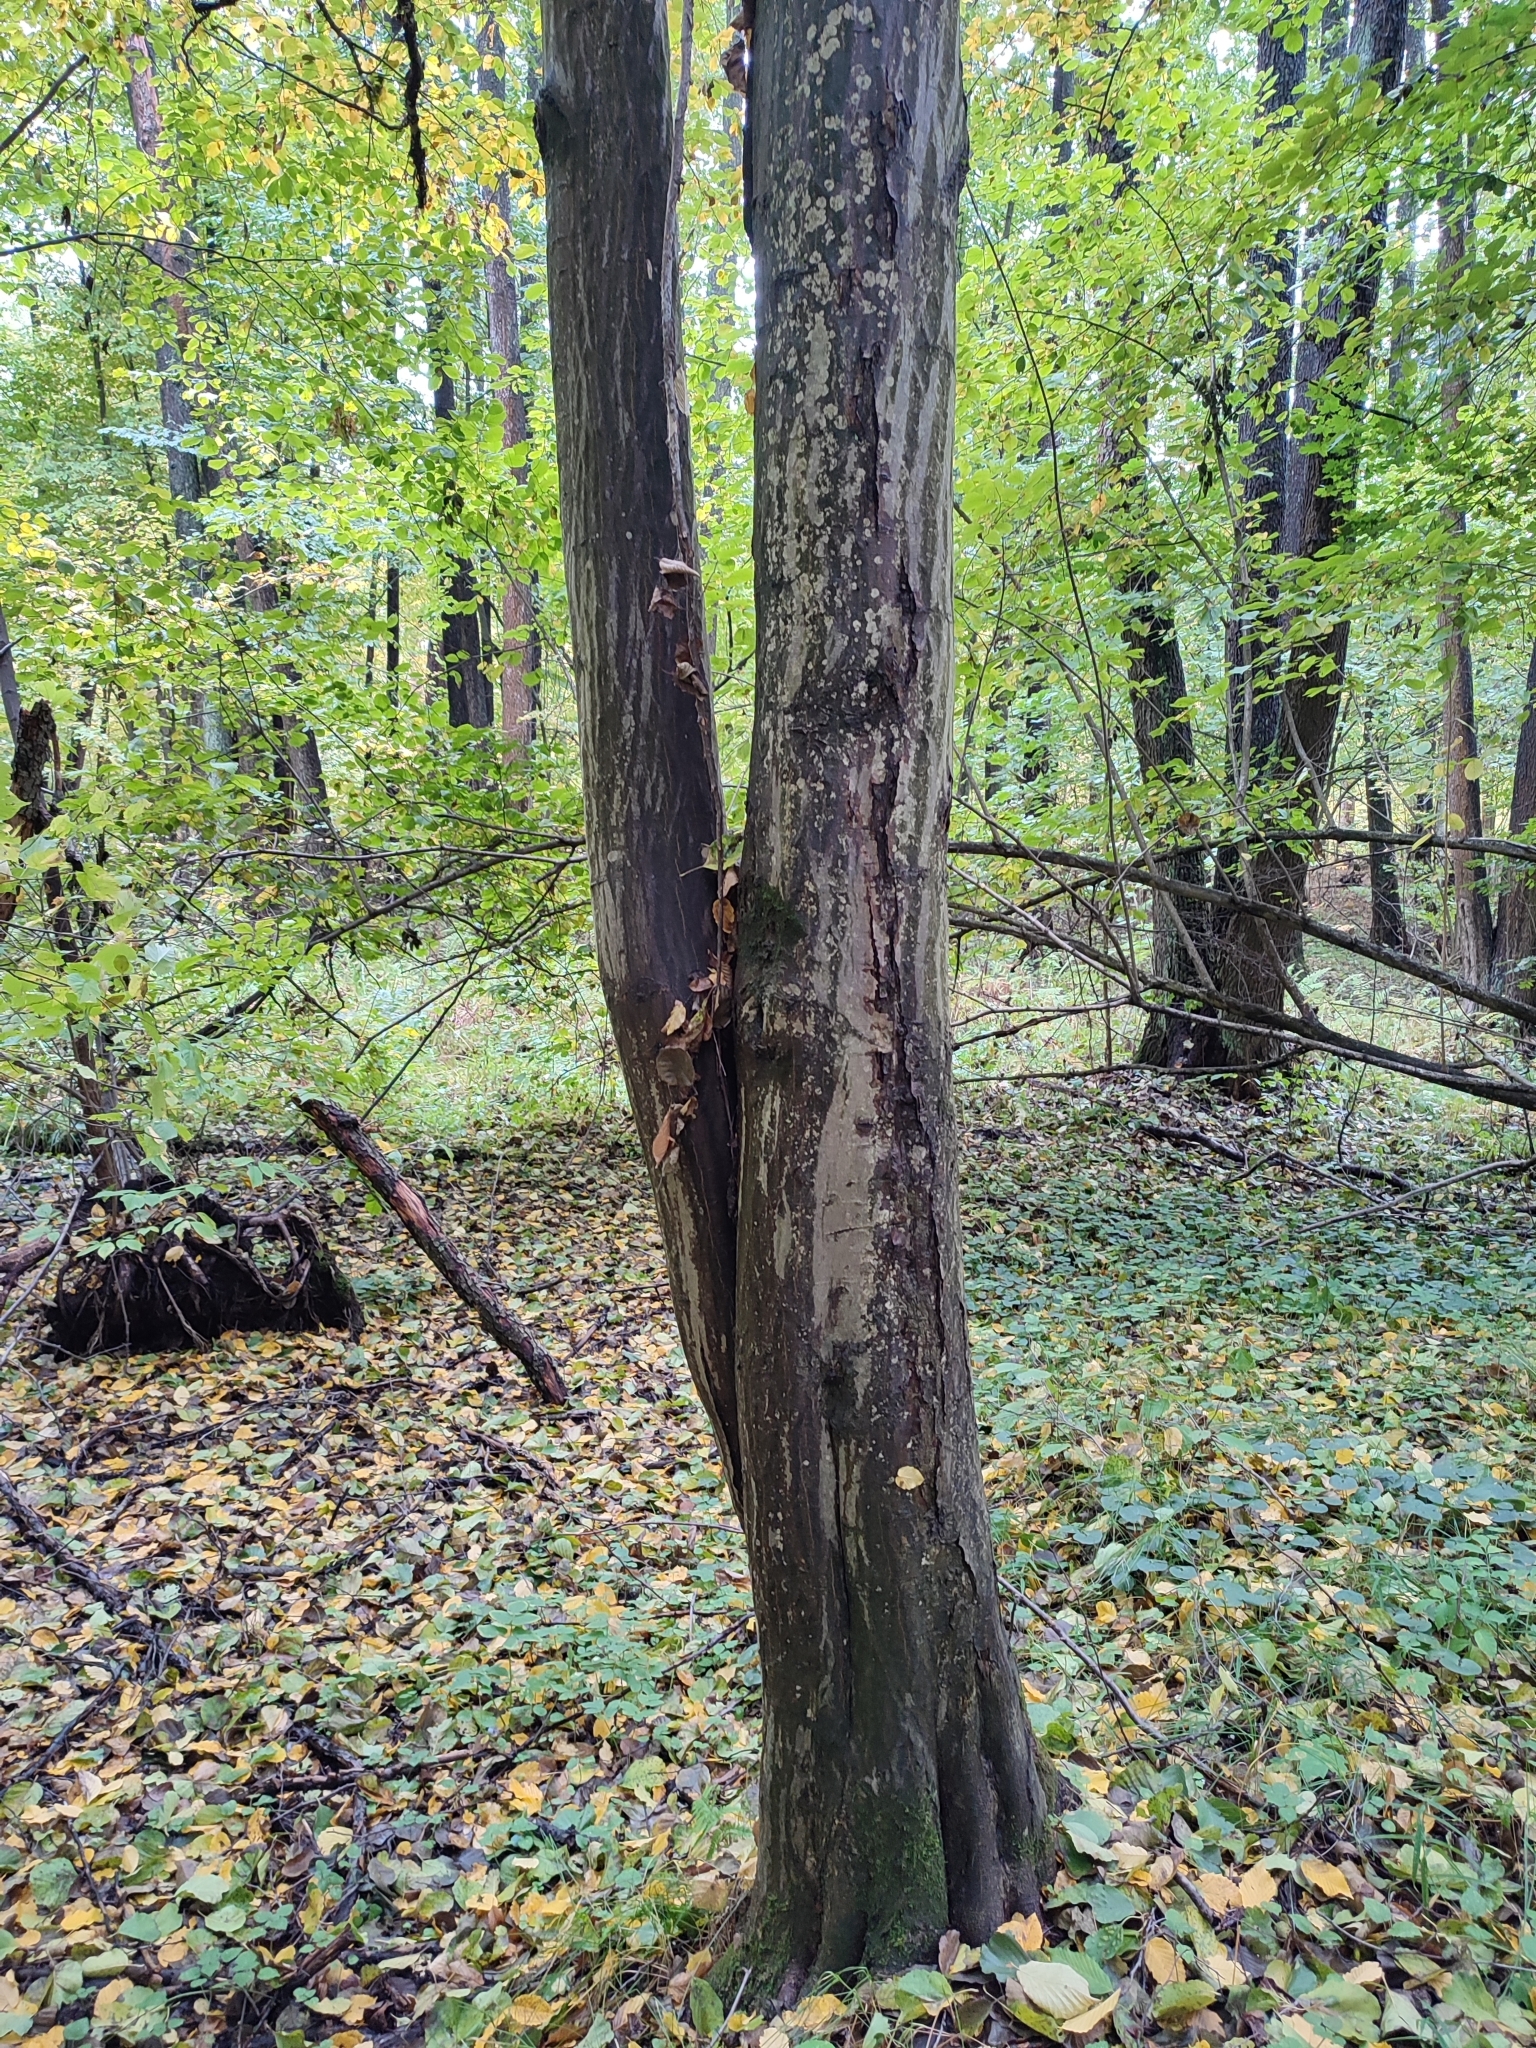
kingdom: Plantae
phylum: Tracheophyta
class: Magnoliopsida
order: Fagales
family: Betulaceae
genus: Carpinus
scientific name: Carpinus betulus
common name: Hornbeam
